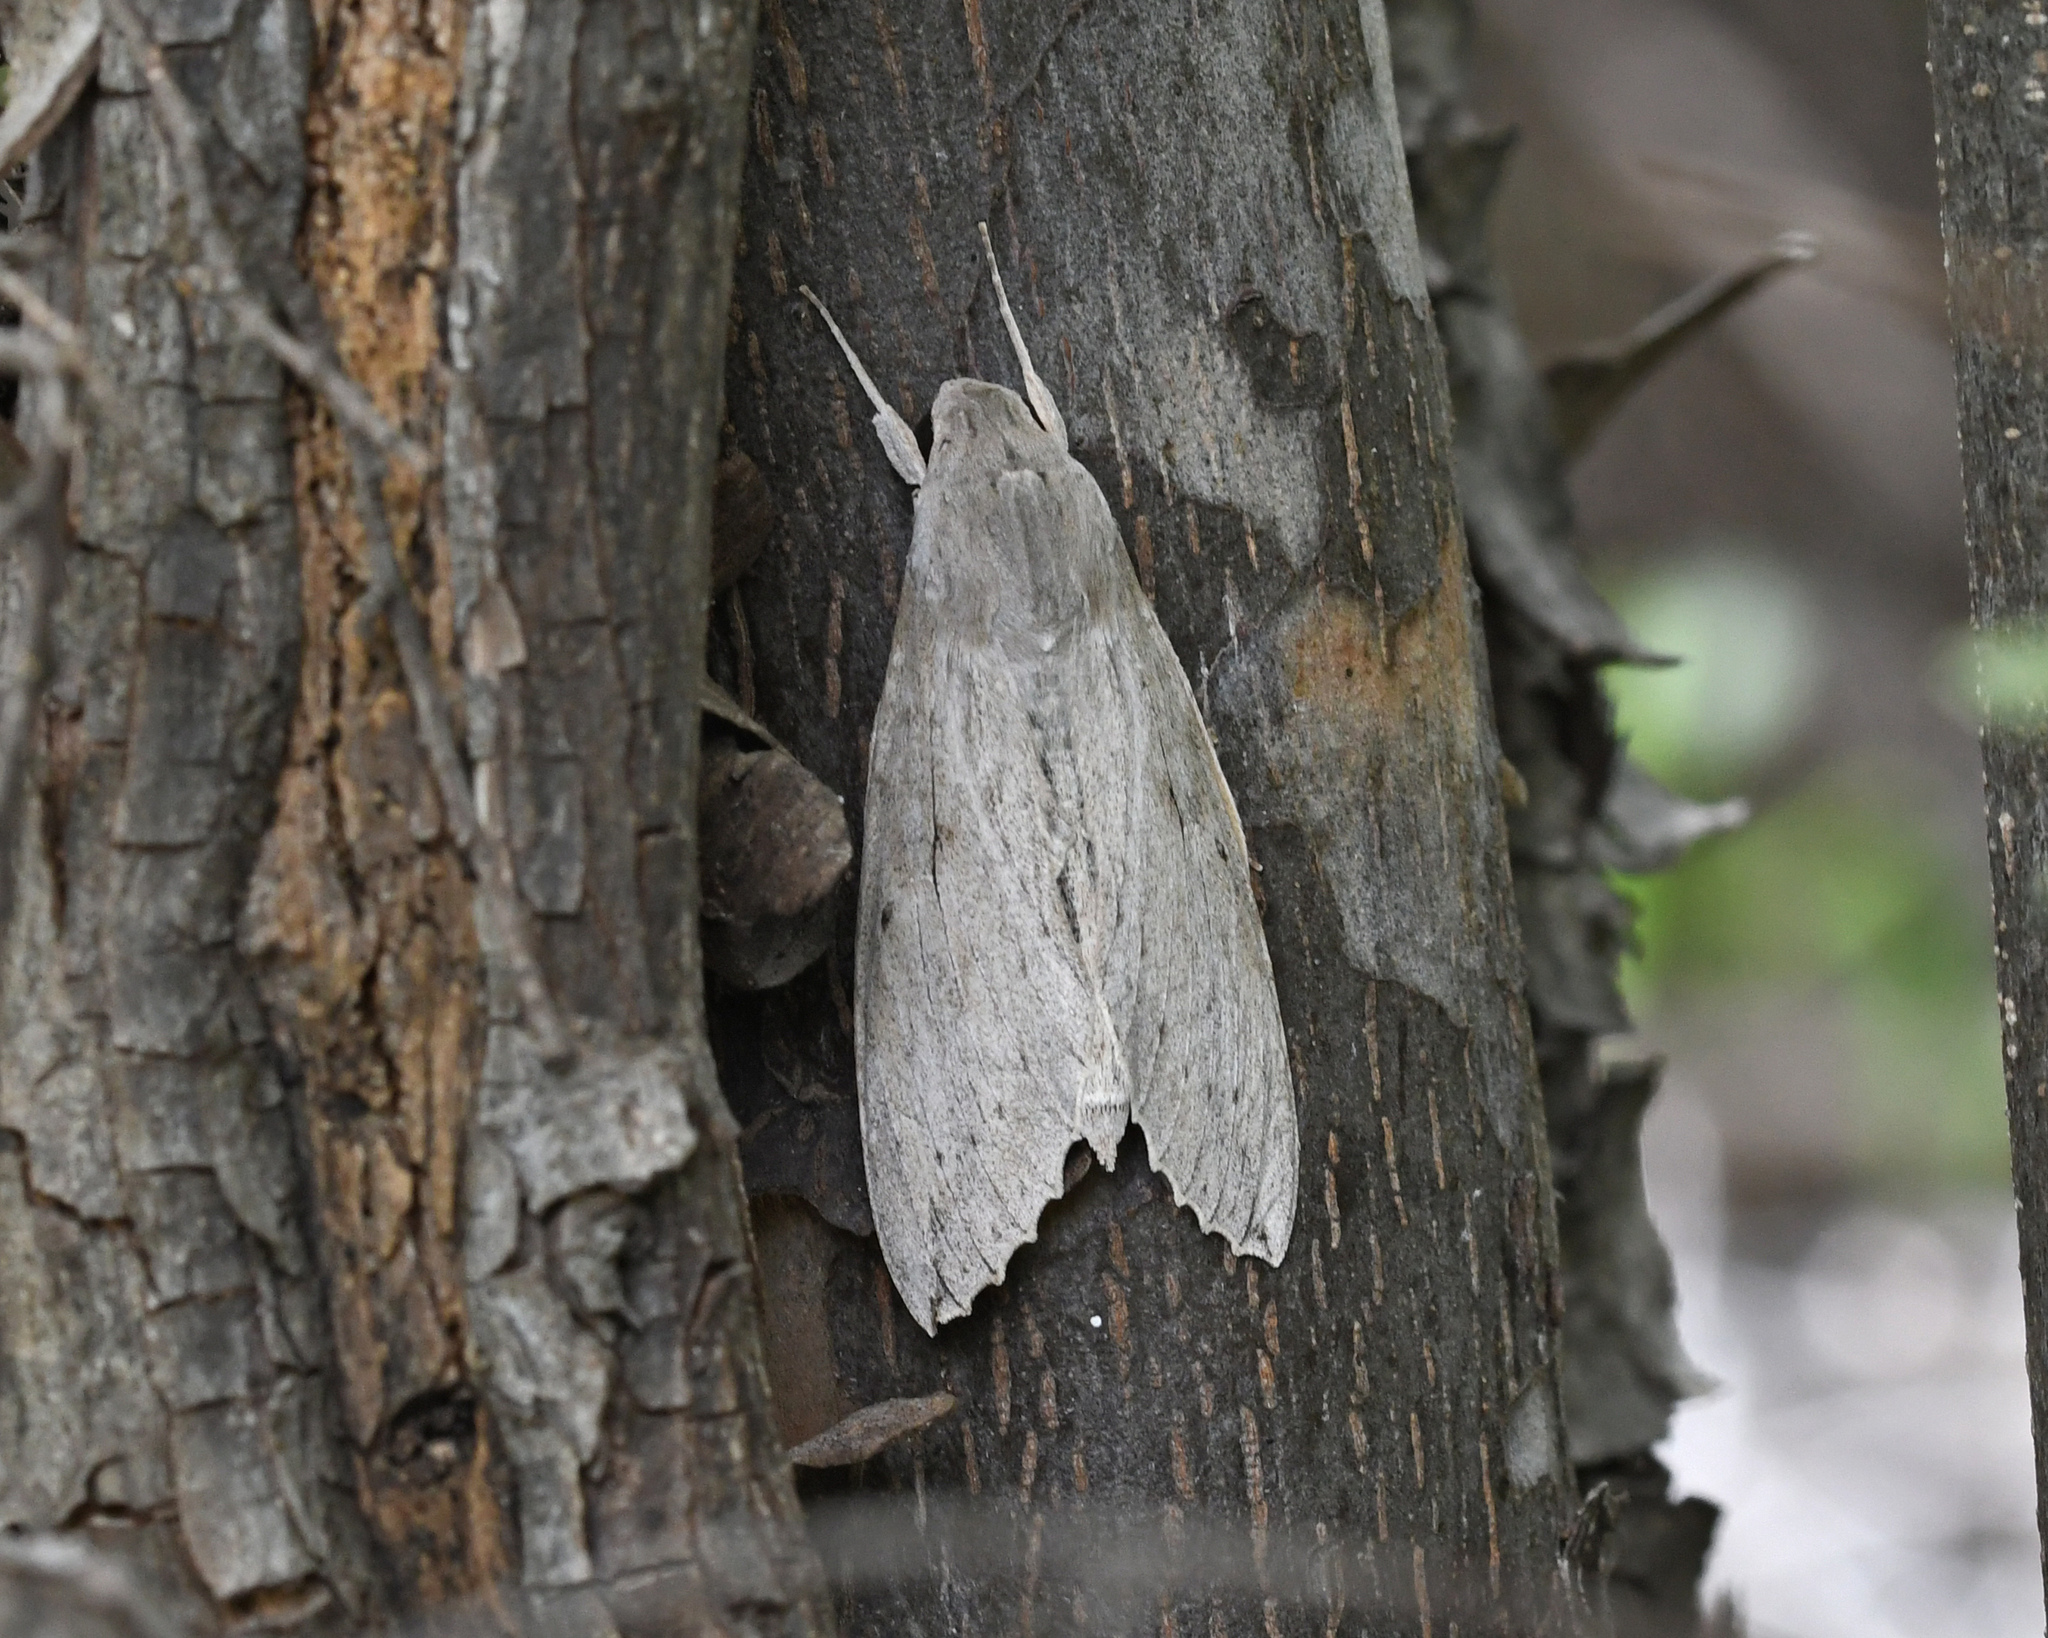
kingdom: Animalia
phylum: Arthropoda
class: Insecta
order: Lepidoptera
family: Sphingidae
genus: Erinnyis
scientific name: Erinnyis ello
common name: Ello sphinx
